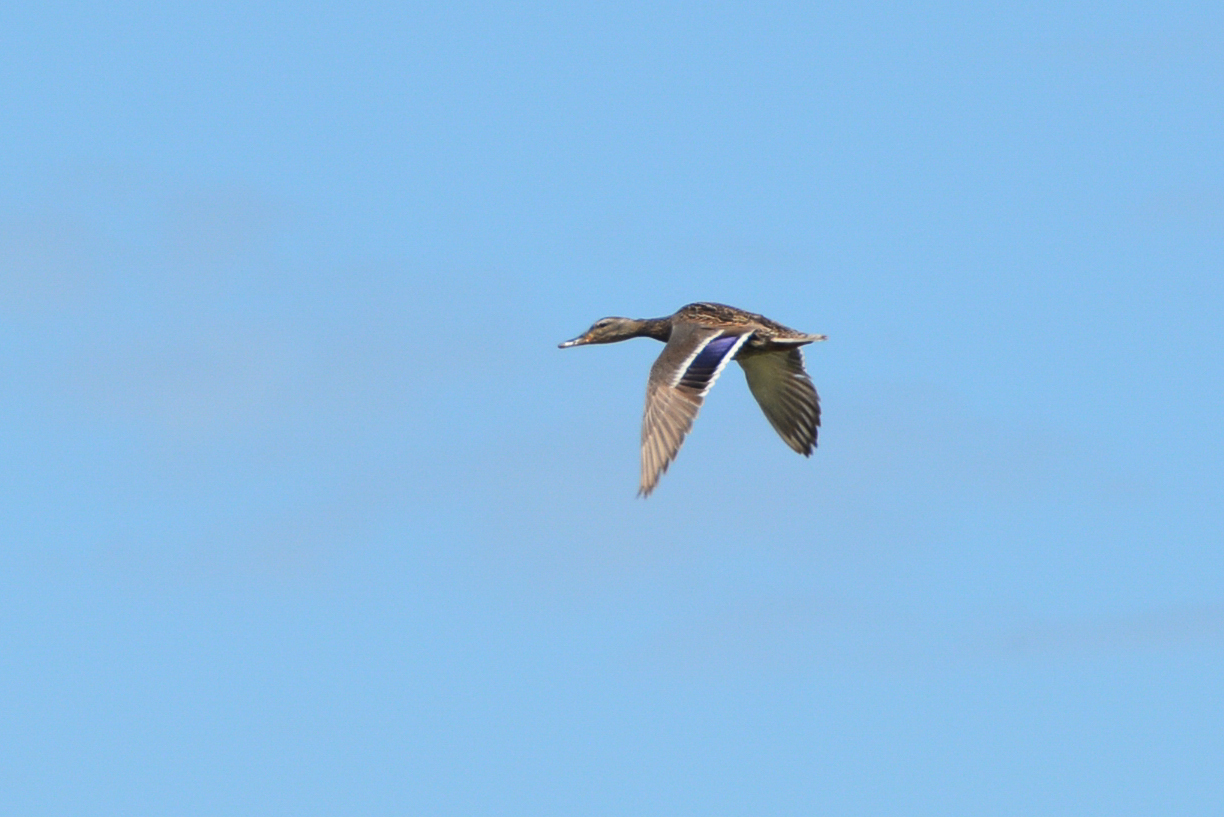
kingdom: Animalia
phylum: Chordata
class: Aves
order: Anseriformes
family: Anatidae
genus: Anas
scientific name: Anas platyrhynchos
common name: Mallard
